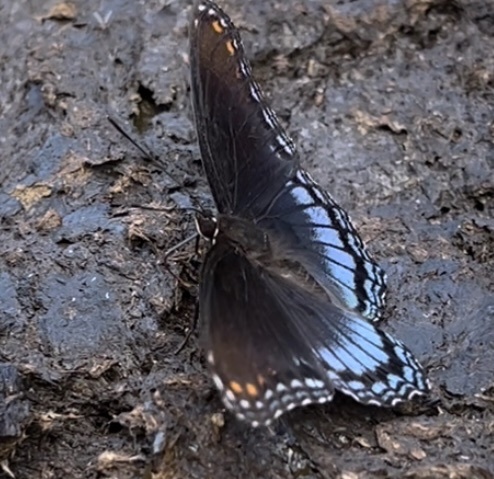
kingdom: Animalia
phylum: Arthropoda
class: Insecta
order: Lepidoptera
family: Nymphalidae
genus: Limenitis
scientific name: Limenitis arthemis
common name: Red-spotted admiral
